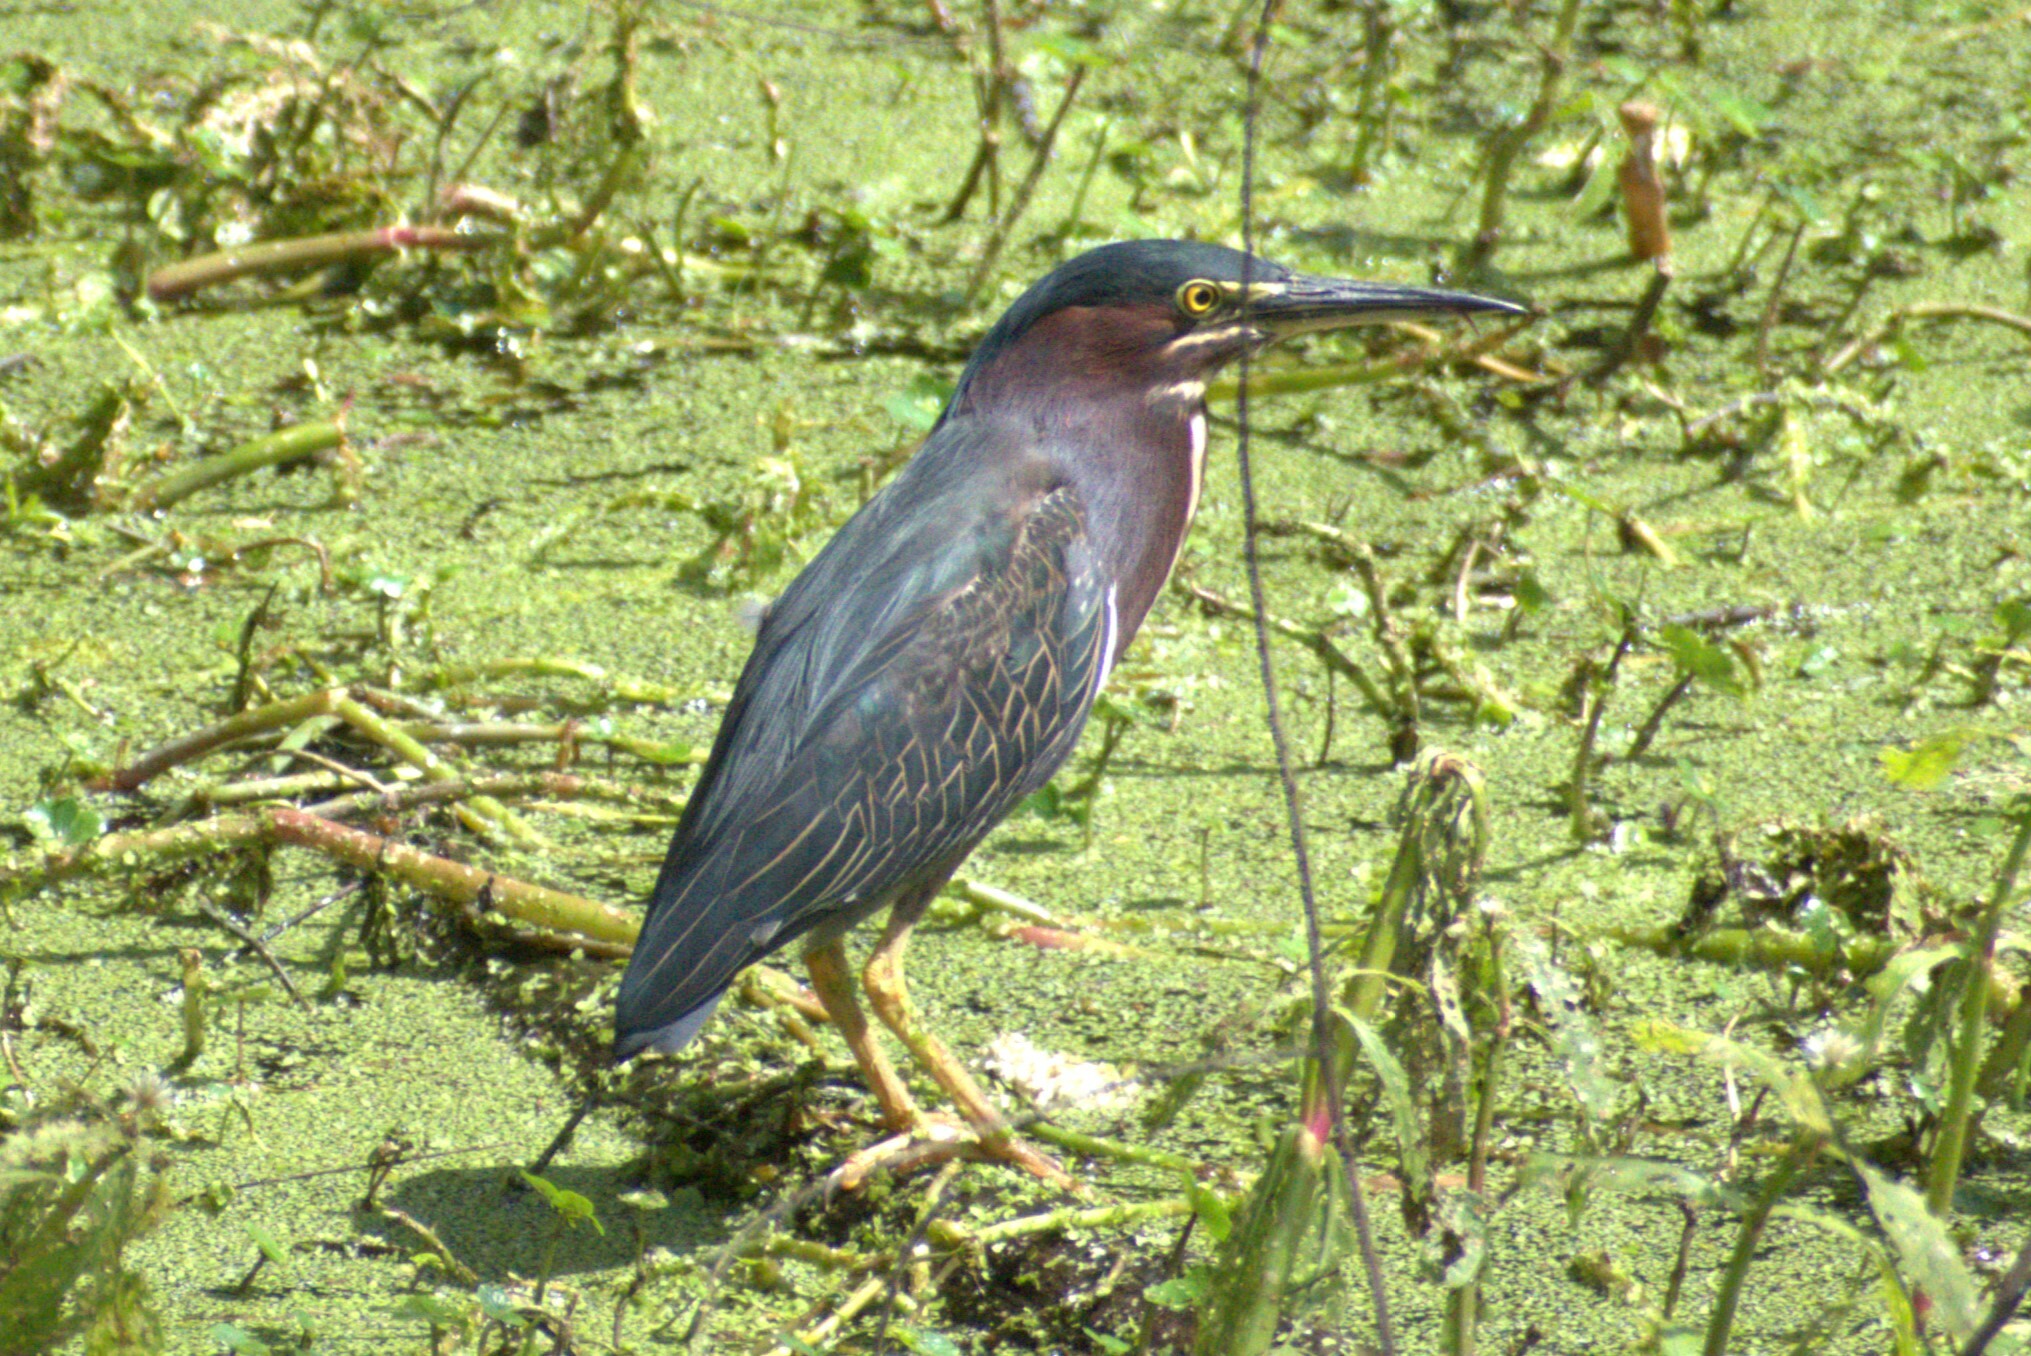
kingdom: Animalia
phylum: Chordata
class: Aves
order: Pelecaniformes
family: Ardeidae
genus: Butorides
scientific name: Butorides virescens
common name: Green heron
